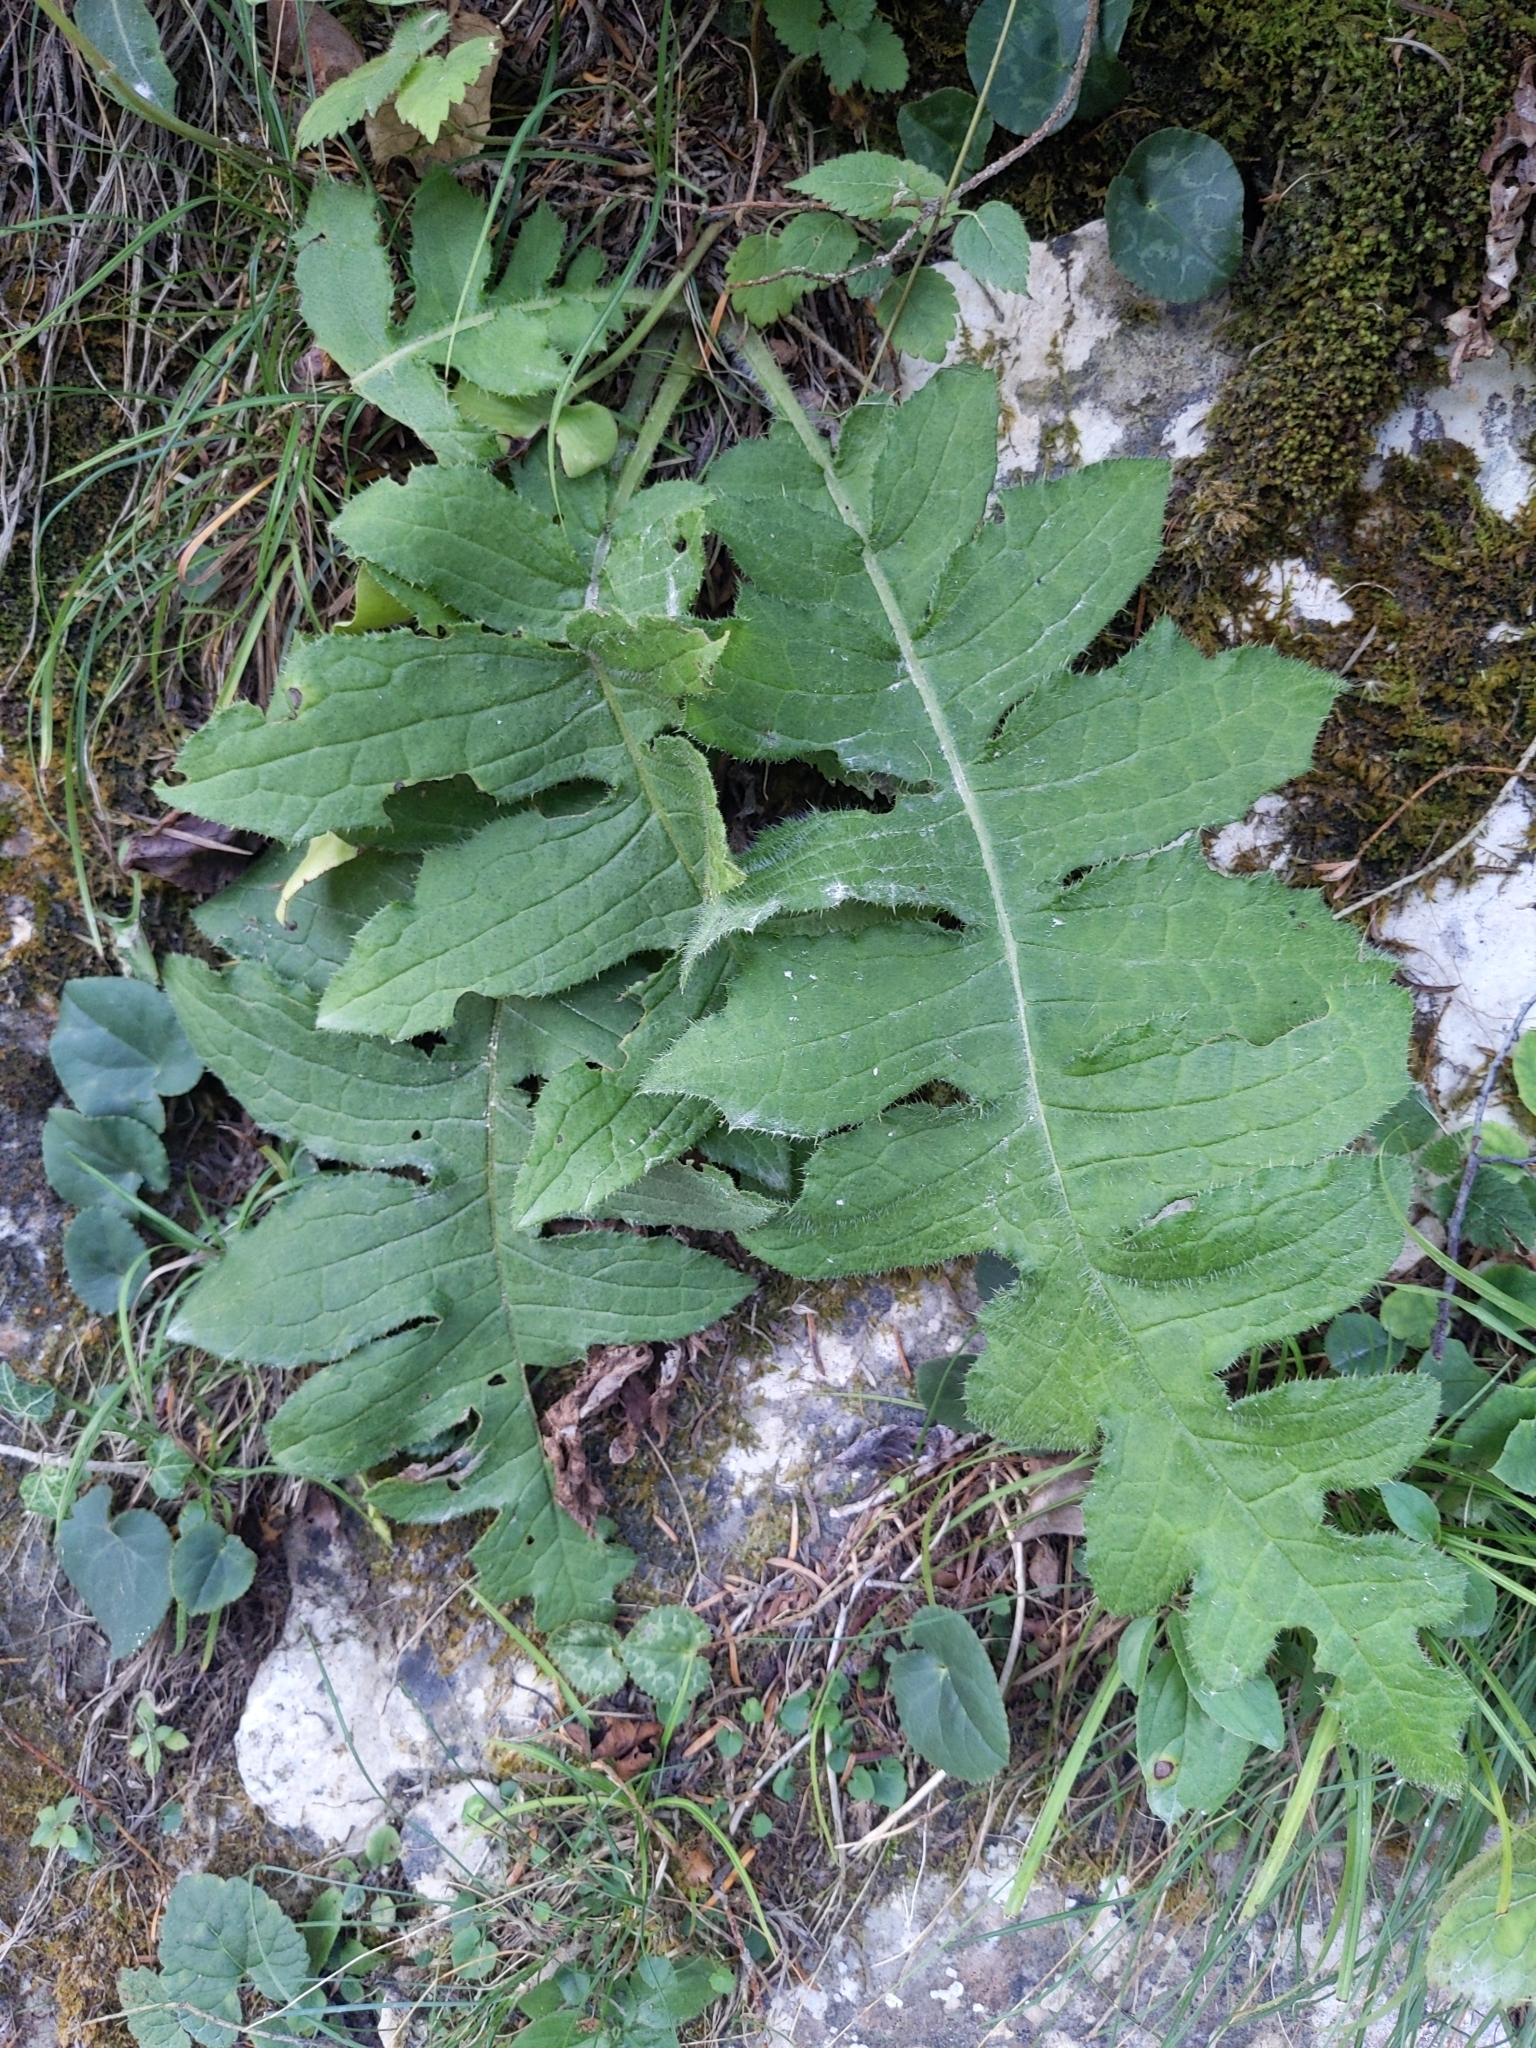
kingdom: Plantae
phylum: Tracheophyta
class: Magnoliopsida
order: Asterales
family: Asteraceae
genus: Cirsium
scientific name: Cirsium erisithales
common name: Yellow thistle
